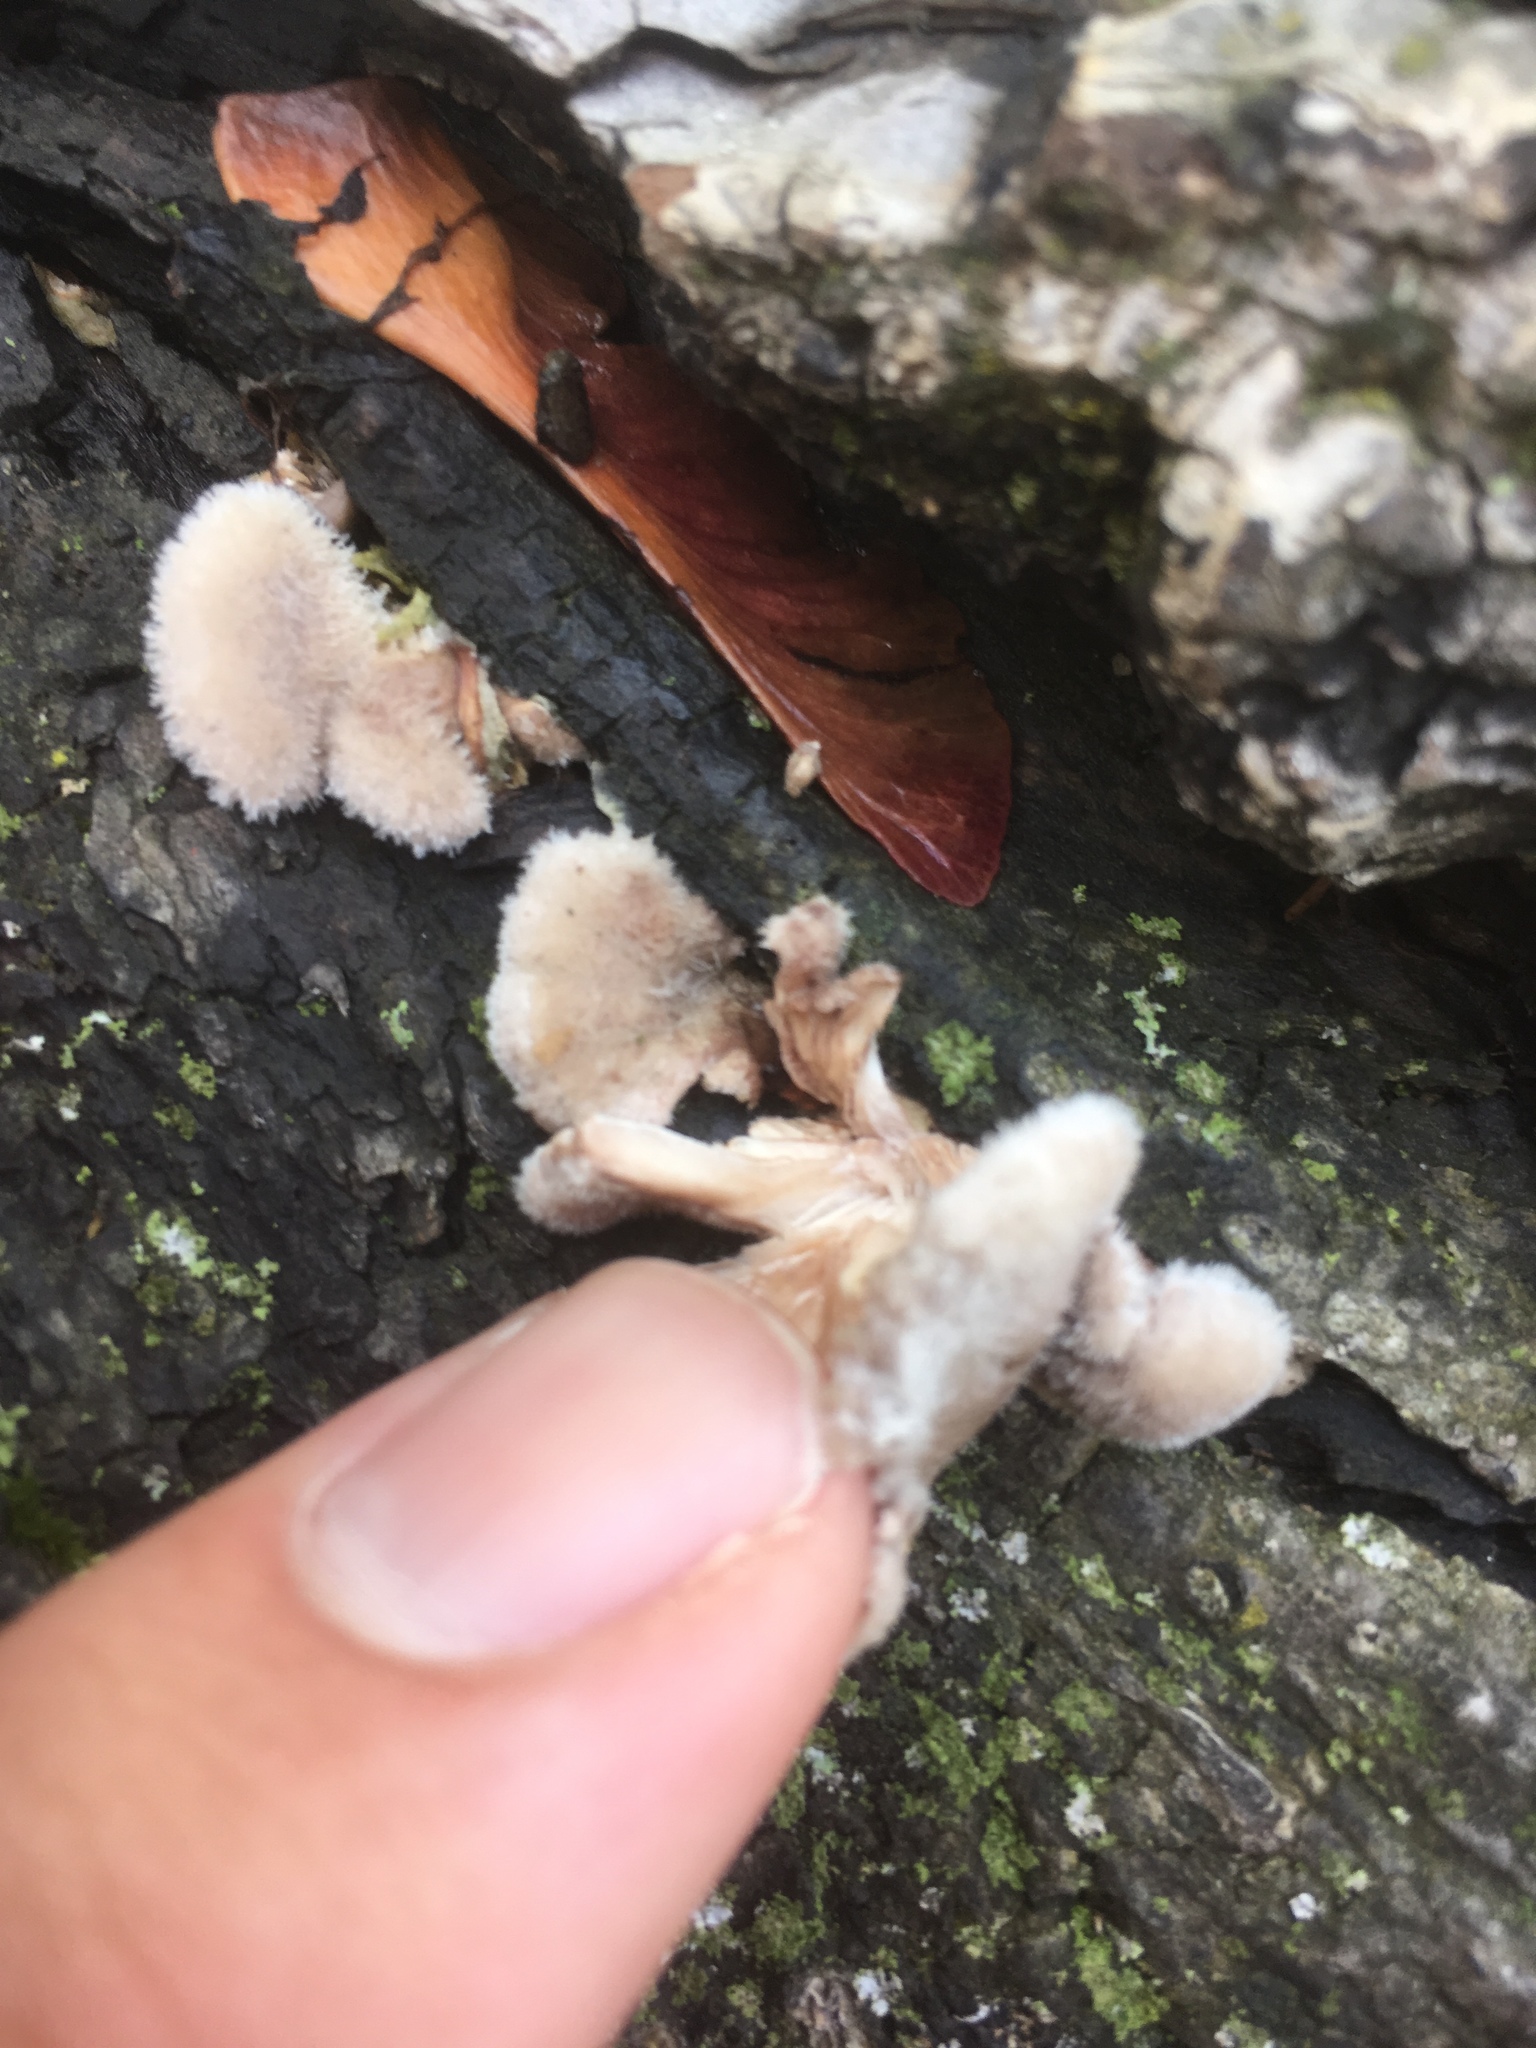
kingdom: Fungi
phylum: Basidiomycota
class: Agaricomycetes
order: Agaricales
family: Schizophyllaceae
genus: Schizophyllum
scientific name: Schizophyllum commune
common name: Common porecrust
